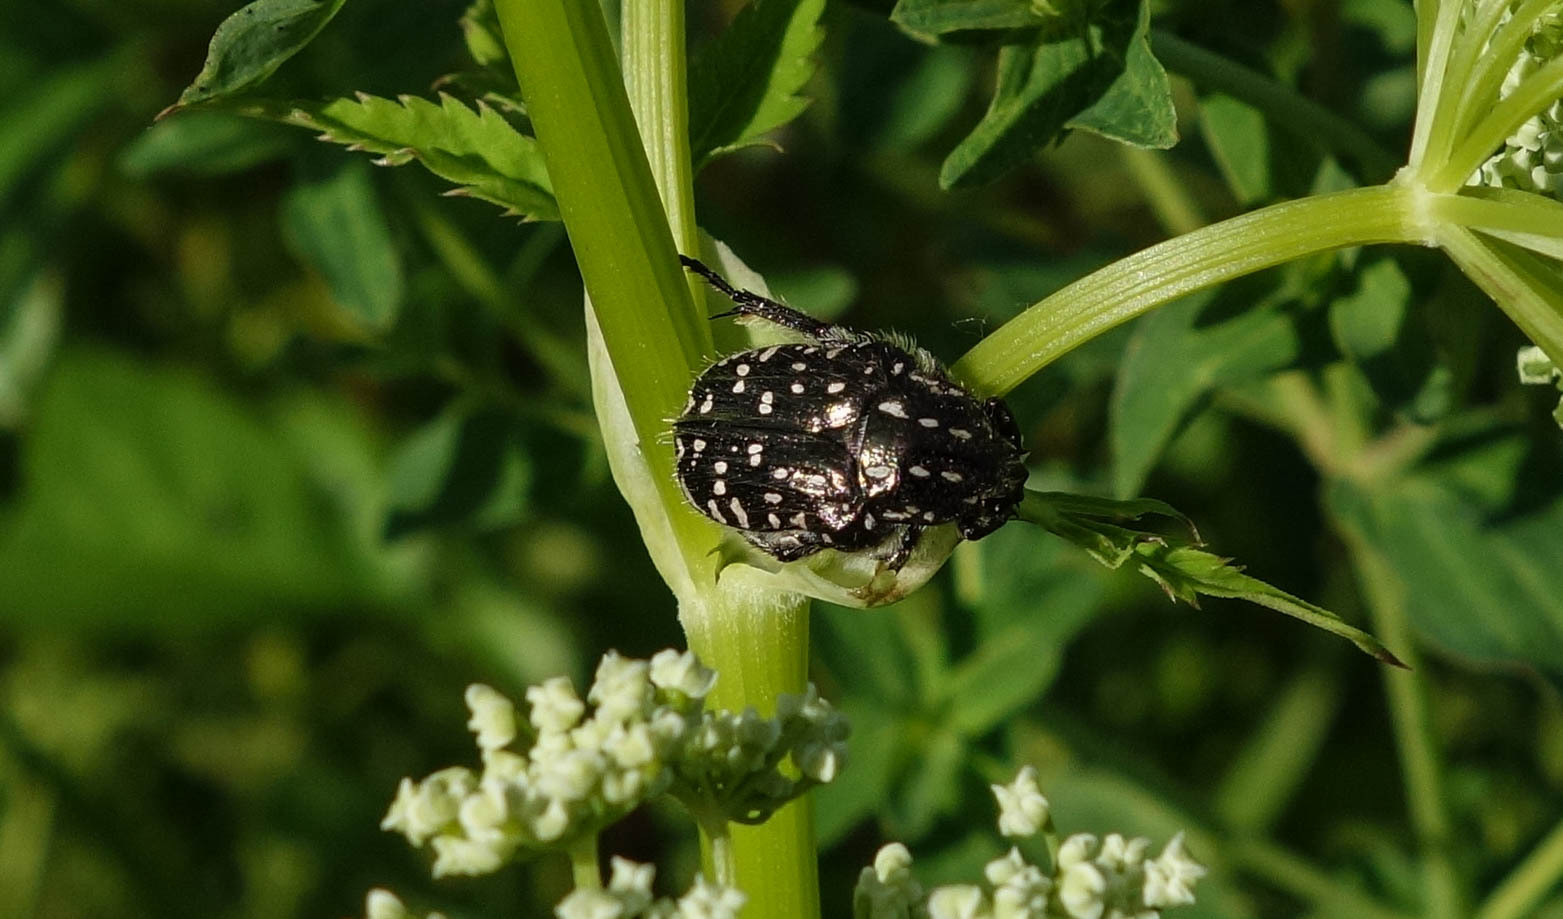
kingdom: Animalia
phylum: Arthropoda
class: Insecta
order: Coleoptera
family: Scarabaeidae
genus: Oxythyrea
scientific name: Oxythyrea funesta
